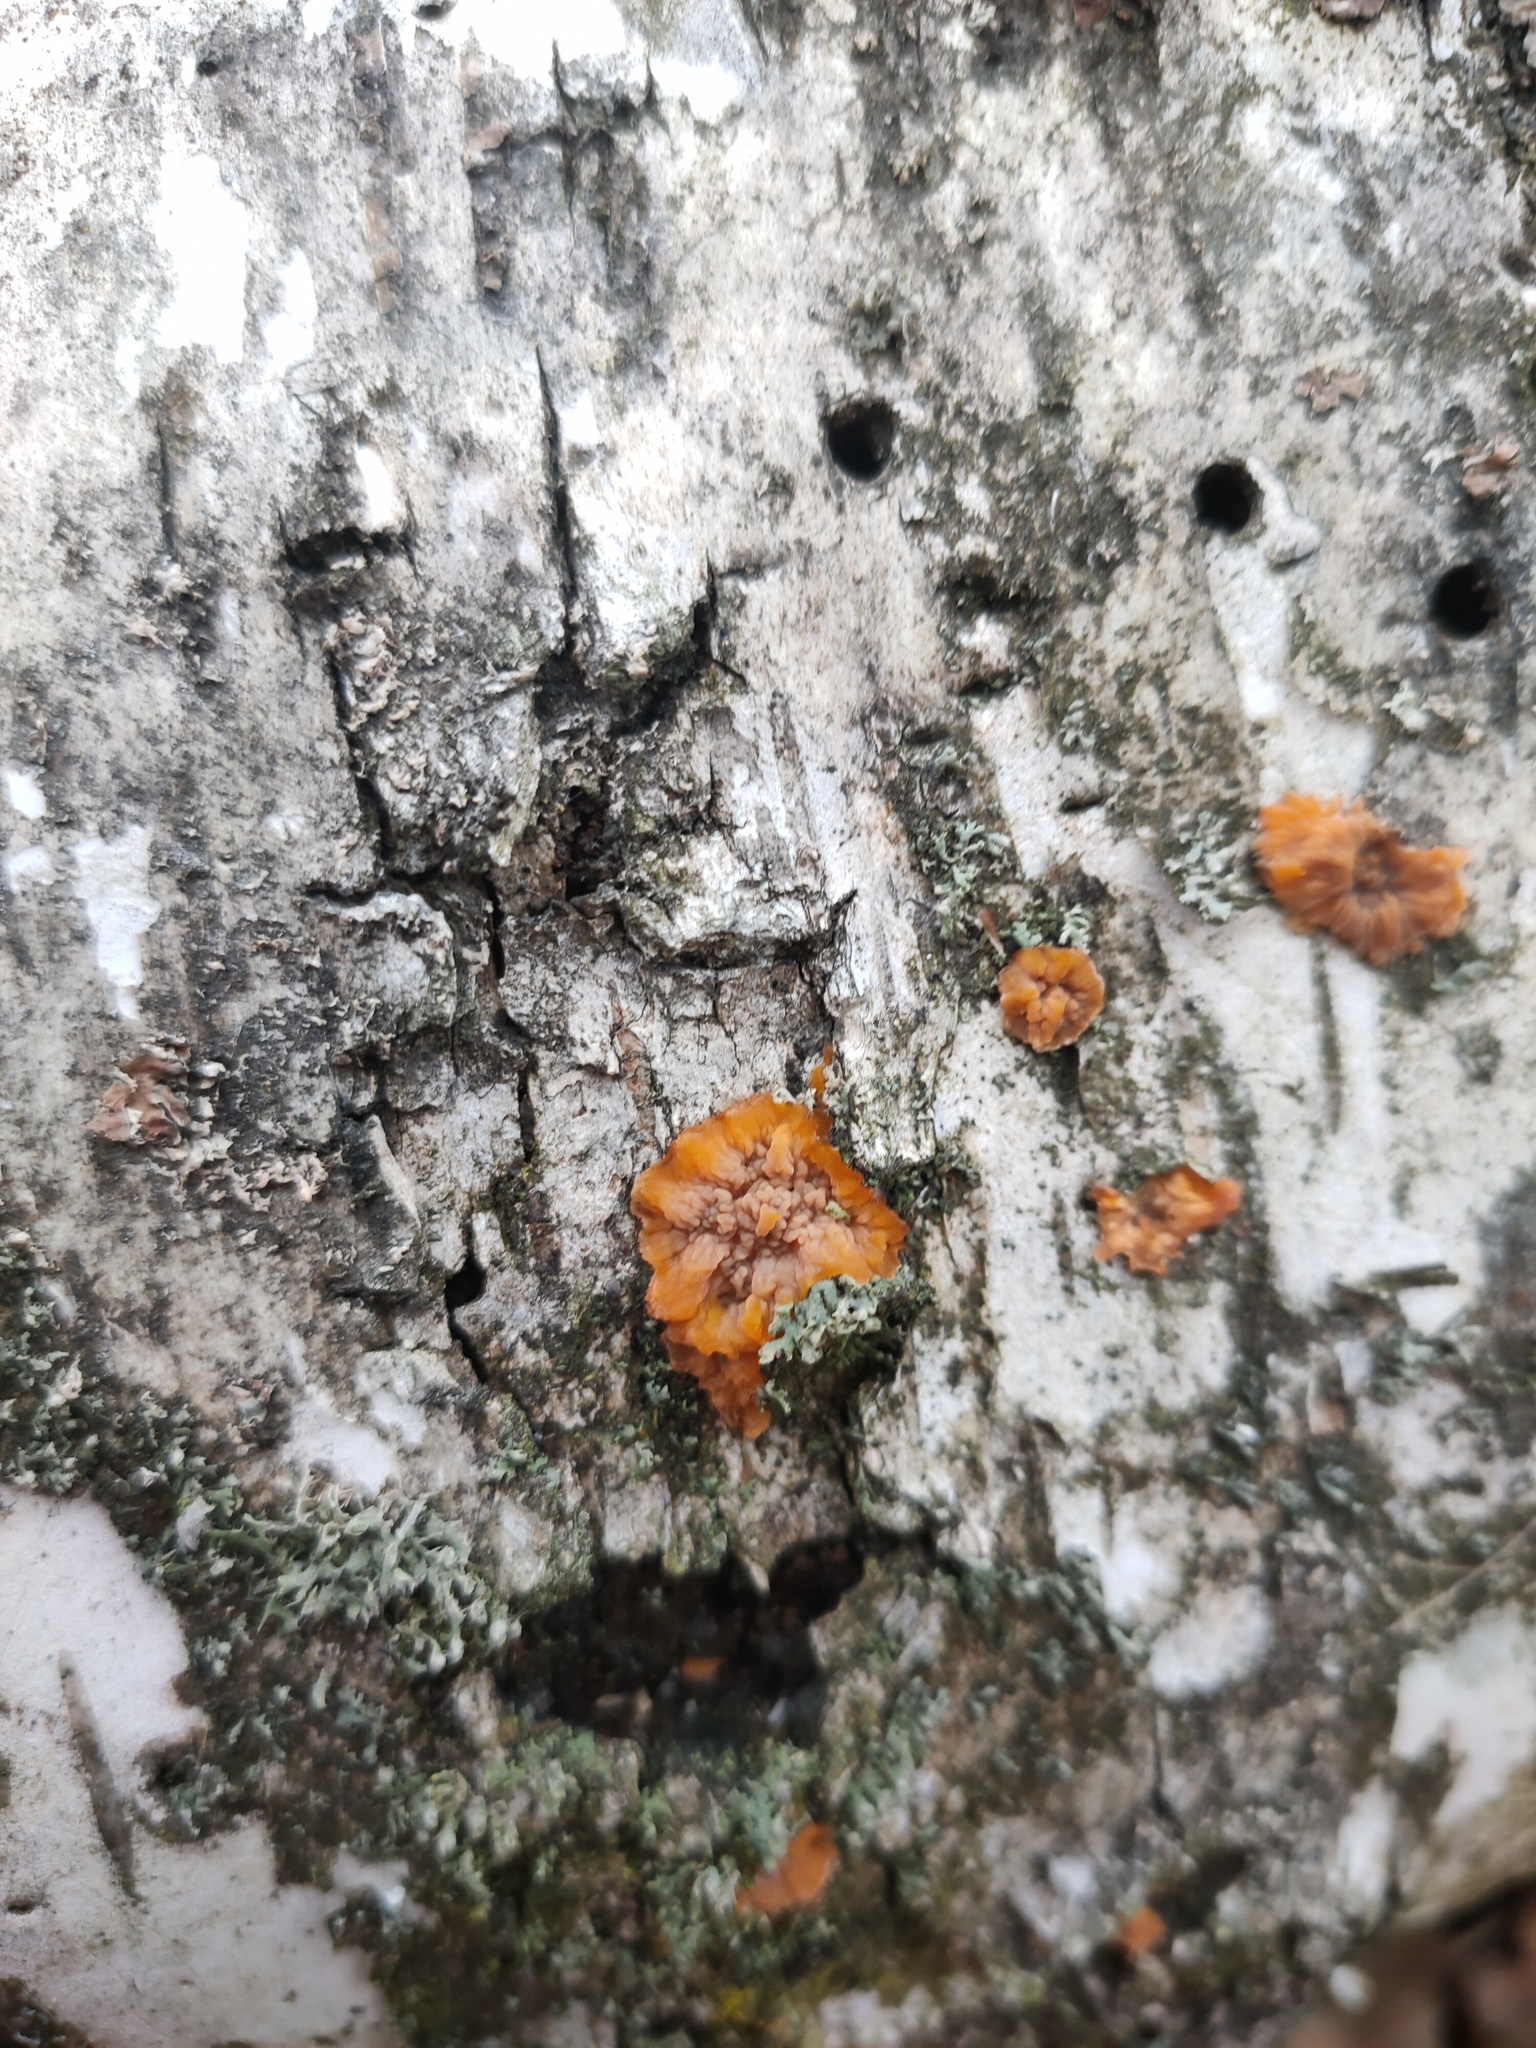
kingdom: Fungi
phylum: Basidiomycota
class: Agaricomycetes
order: Polyporales
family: Meruliaceae
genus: Phlebia
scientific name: Phlebia radiata
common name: Wrinkled crust
